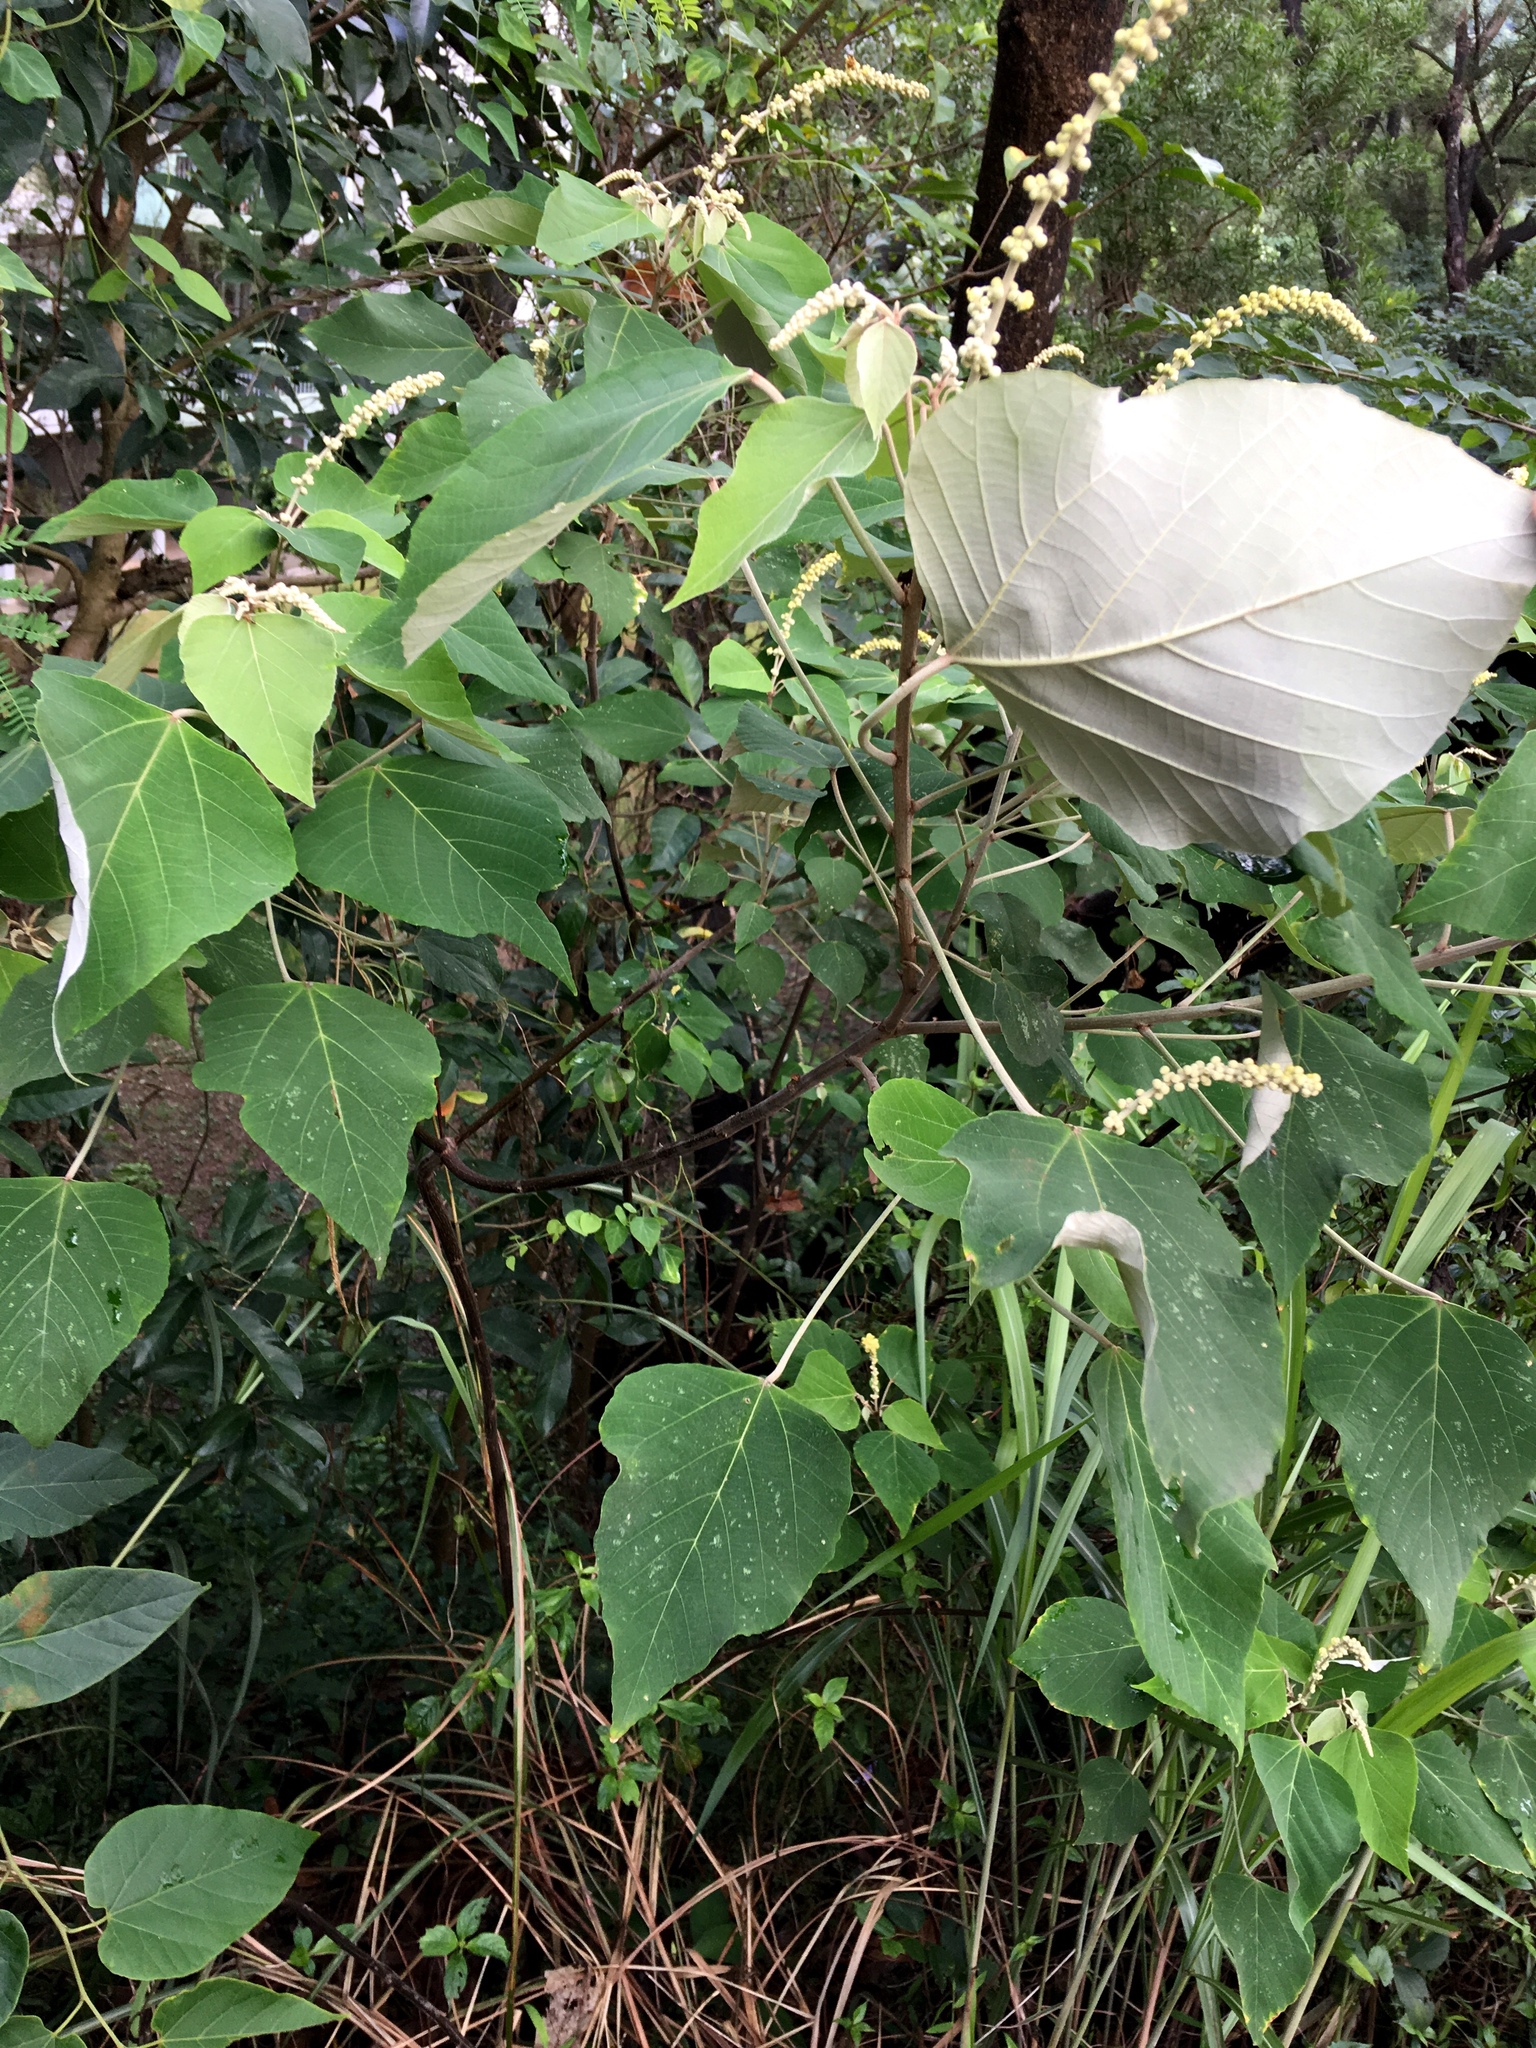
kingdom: Plantae
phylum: Tracheophyta
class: Magnoliopsida
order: Malpighiales
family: Euphorbiaceae
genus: Mallotus
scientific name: Mallotus apelta
